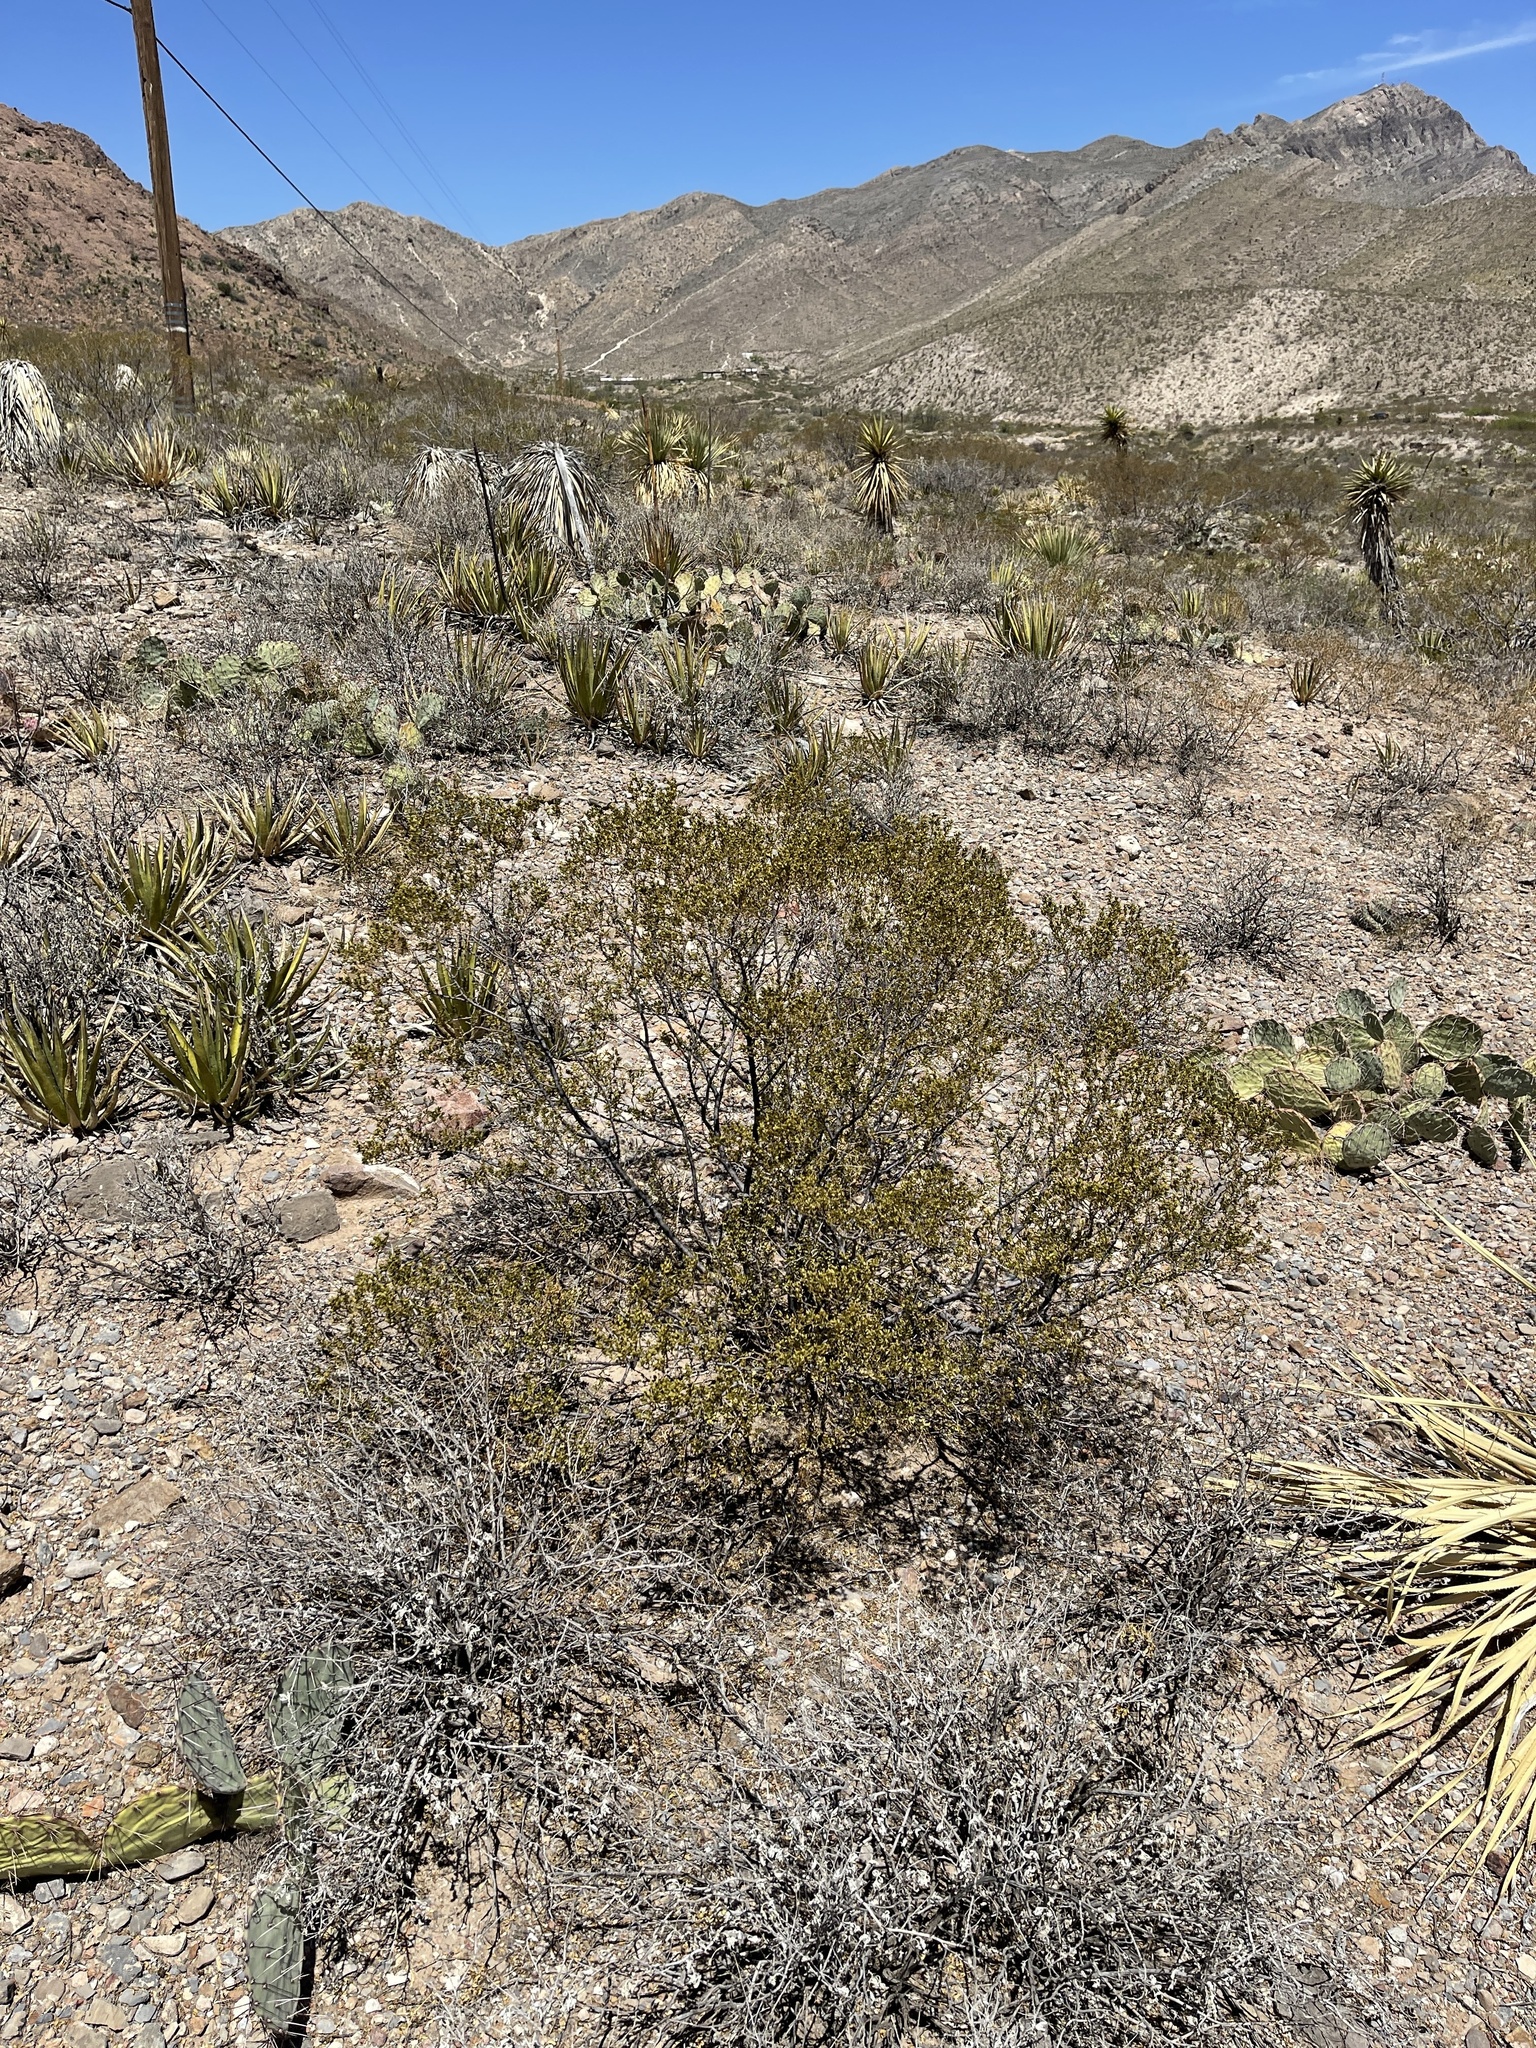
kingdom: Plantae
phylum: Tracheophyta
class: Magnoliopsida
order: Zygophyllales
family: Zygophyllaceae
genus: Larrea
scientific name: Larrea tridentata
